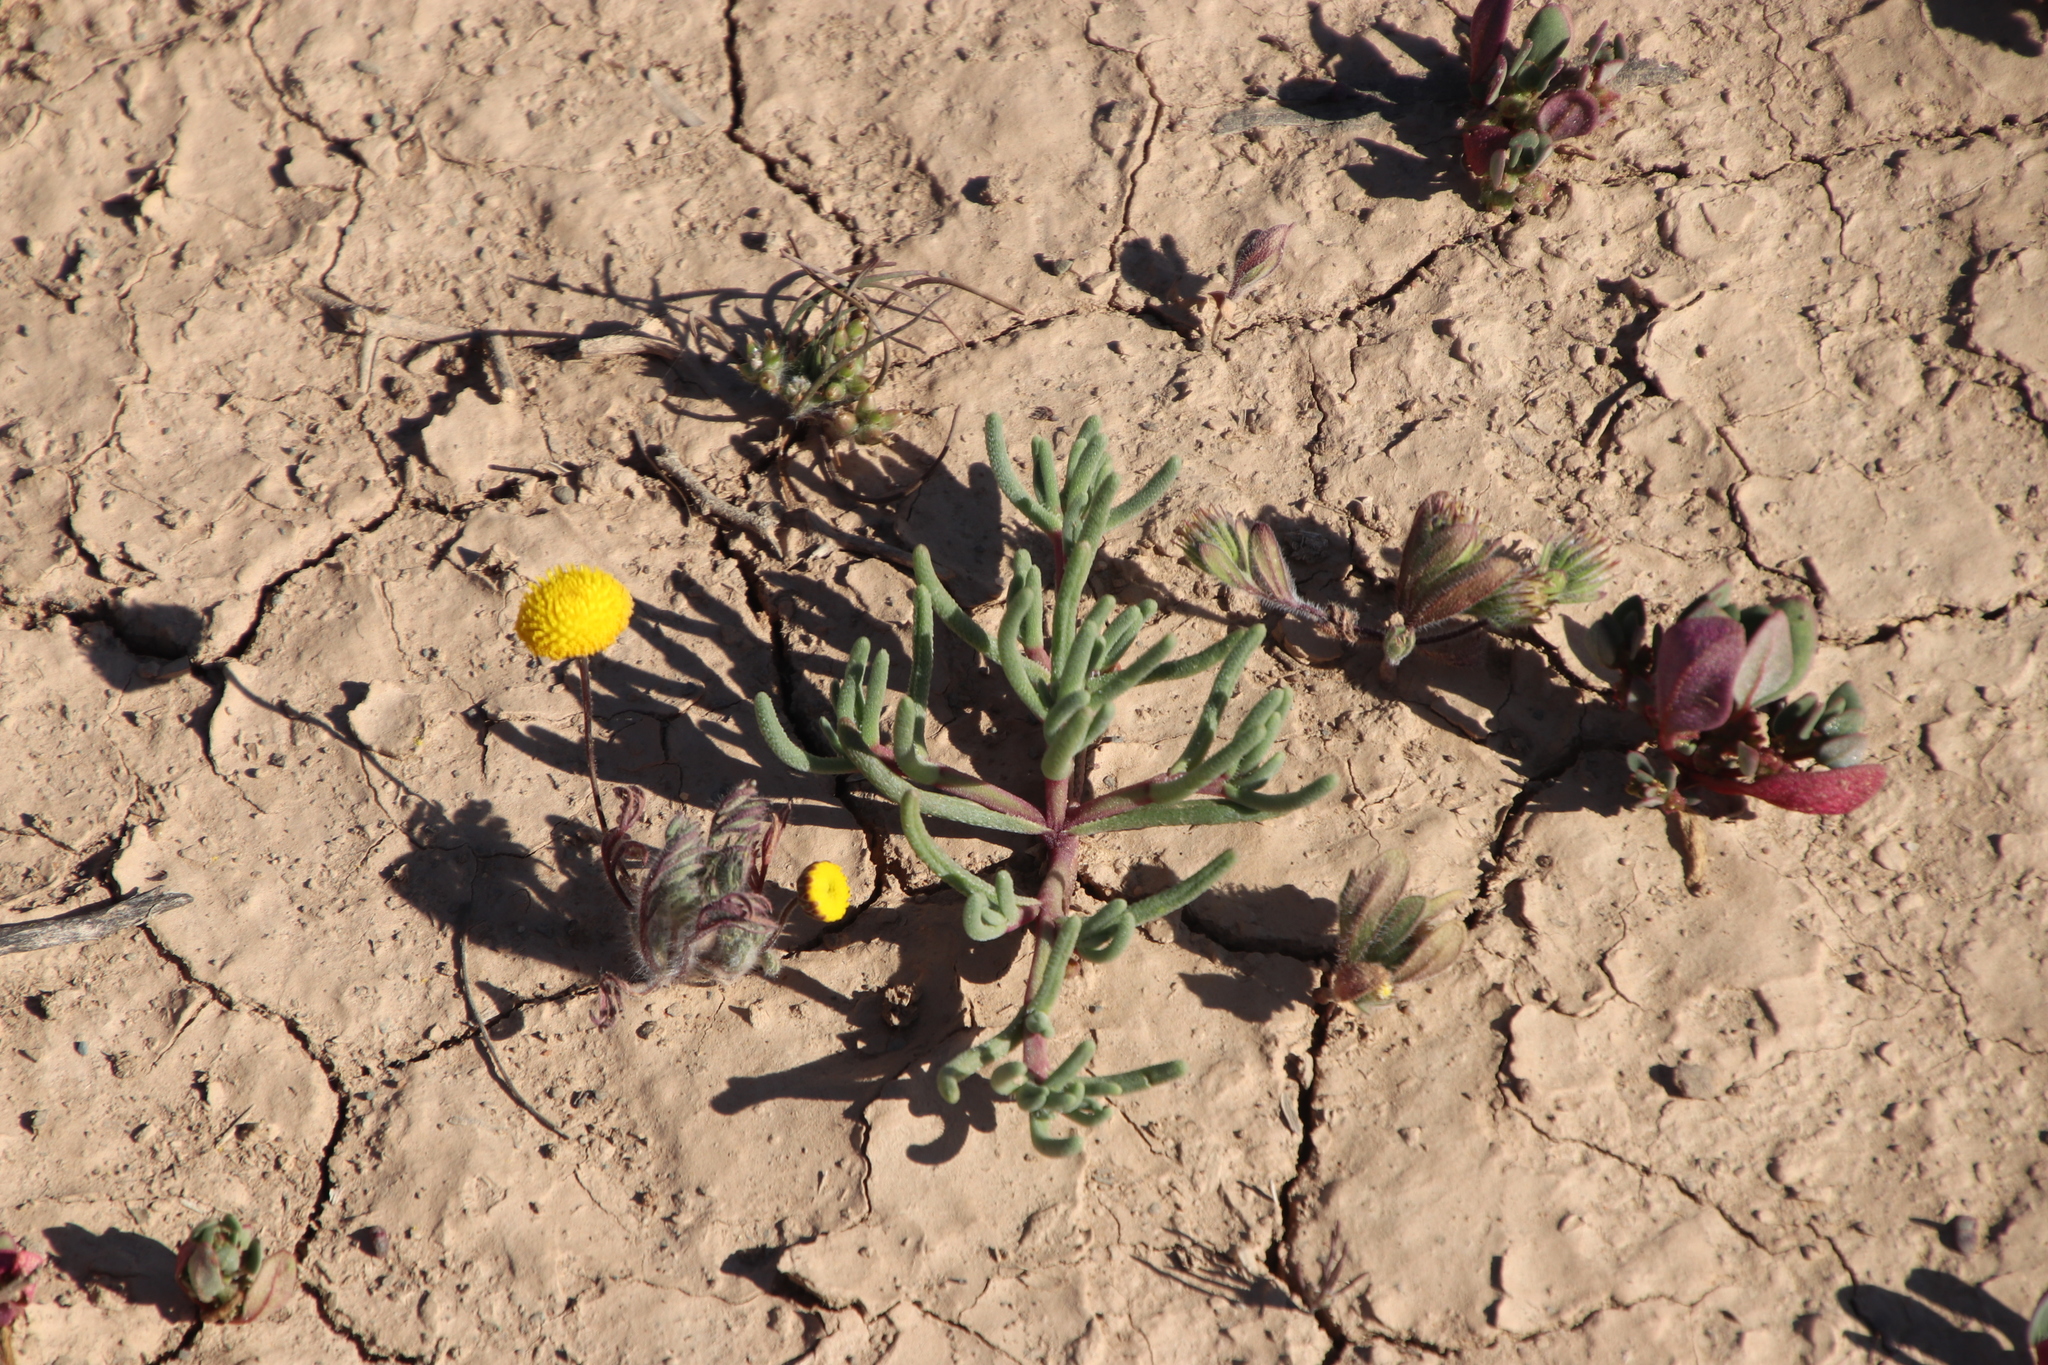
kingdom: Plantae
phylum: Tracheophyta
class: Magnoliopsida
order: Caryophyllales
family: Aizoaceae
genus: Mesembryanthemum
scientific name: Mesembryanthemum nodiflorum
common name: Slenderleaf iceplant
